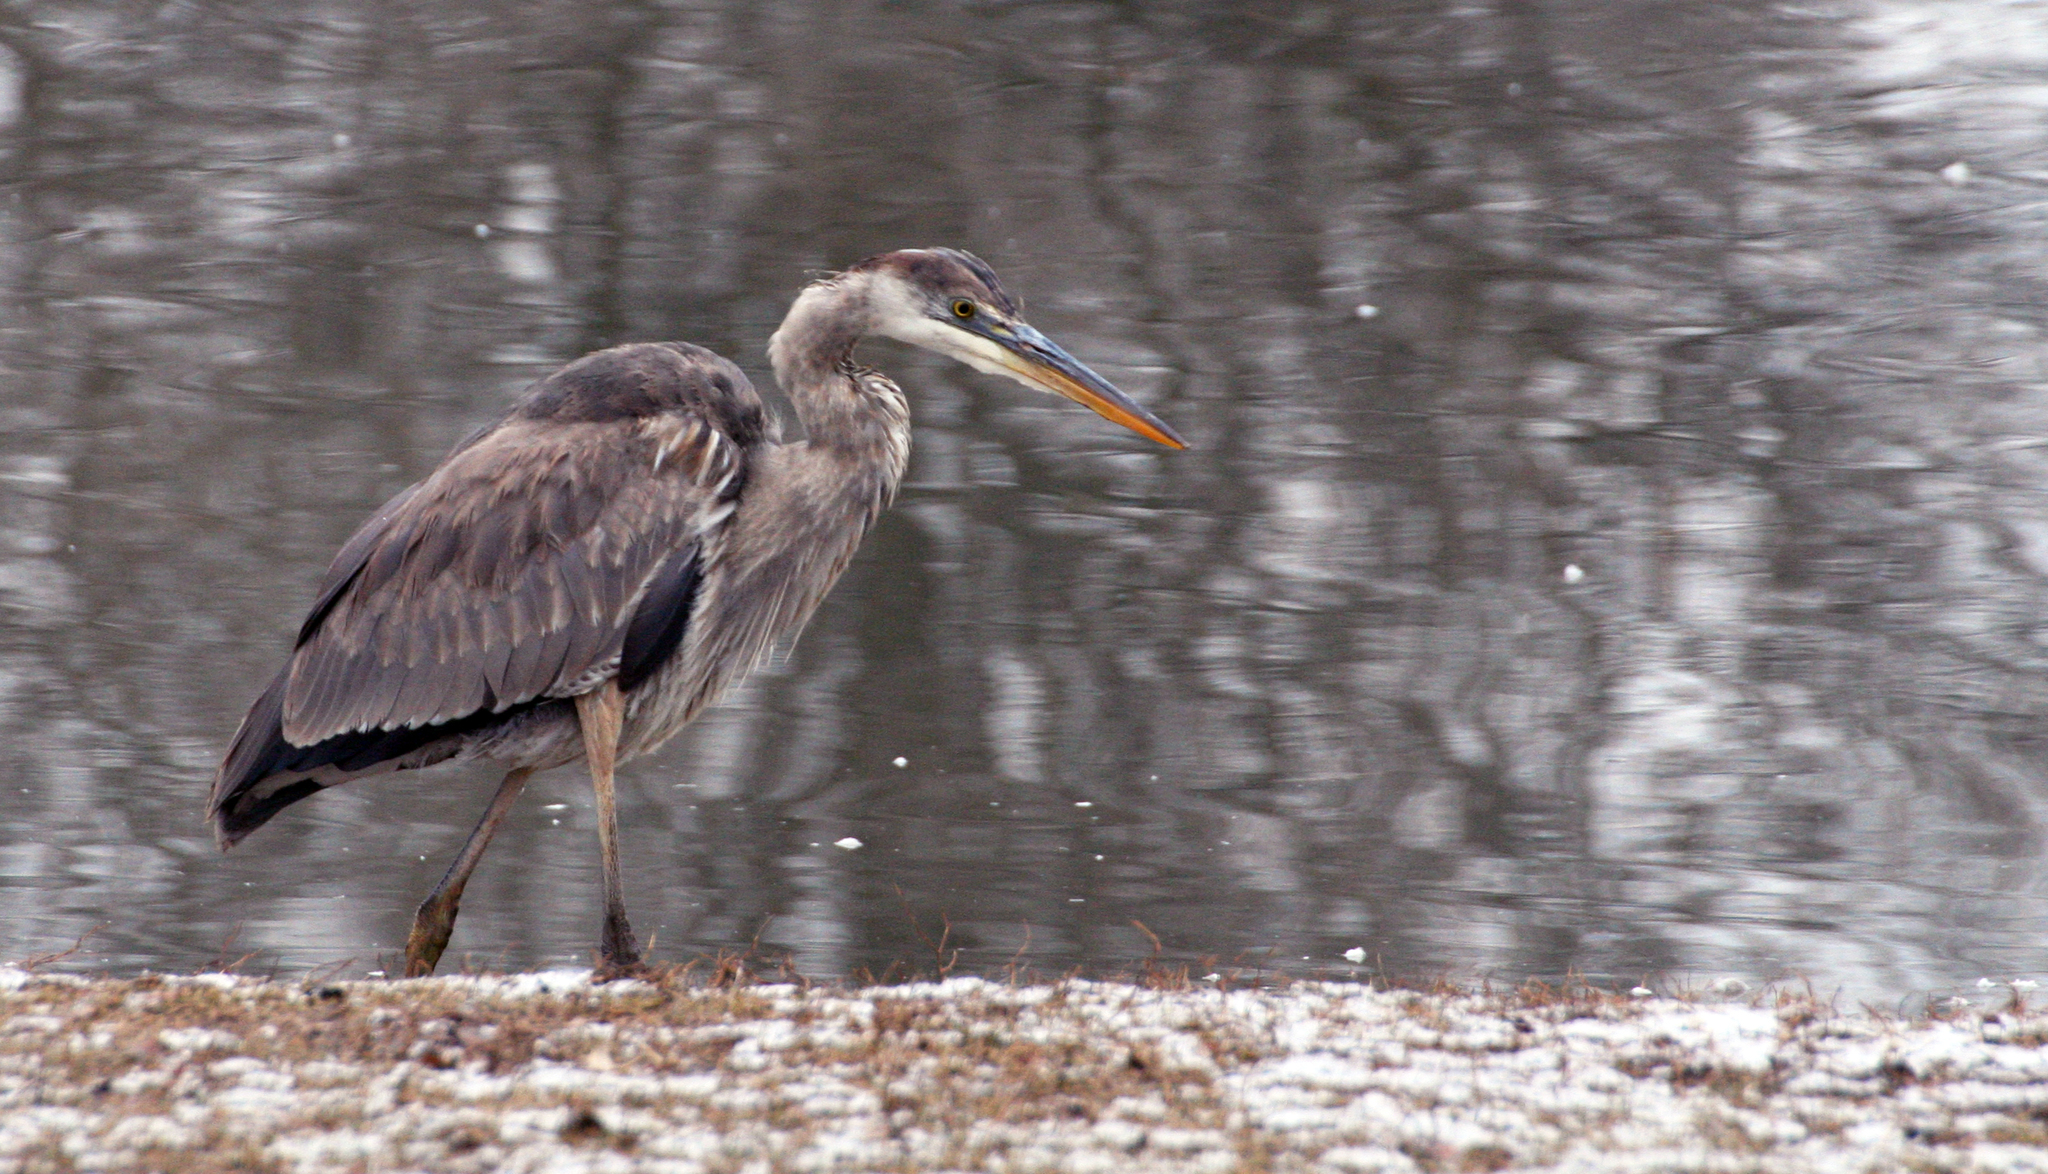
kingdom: Animalia
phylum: Chordata
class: Aves
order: Pelecaniformes
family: Ardeidae
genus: Ardea
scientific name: Ardea herodias
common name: Great blue heron
